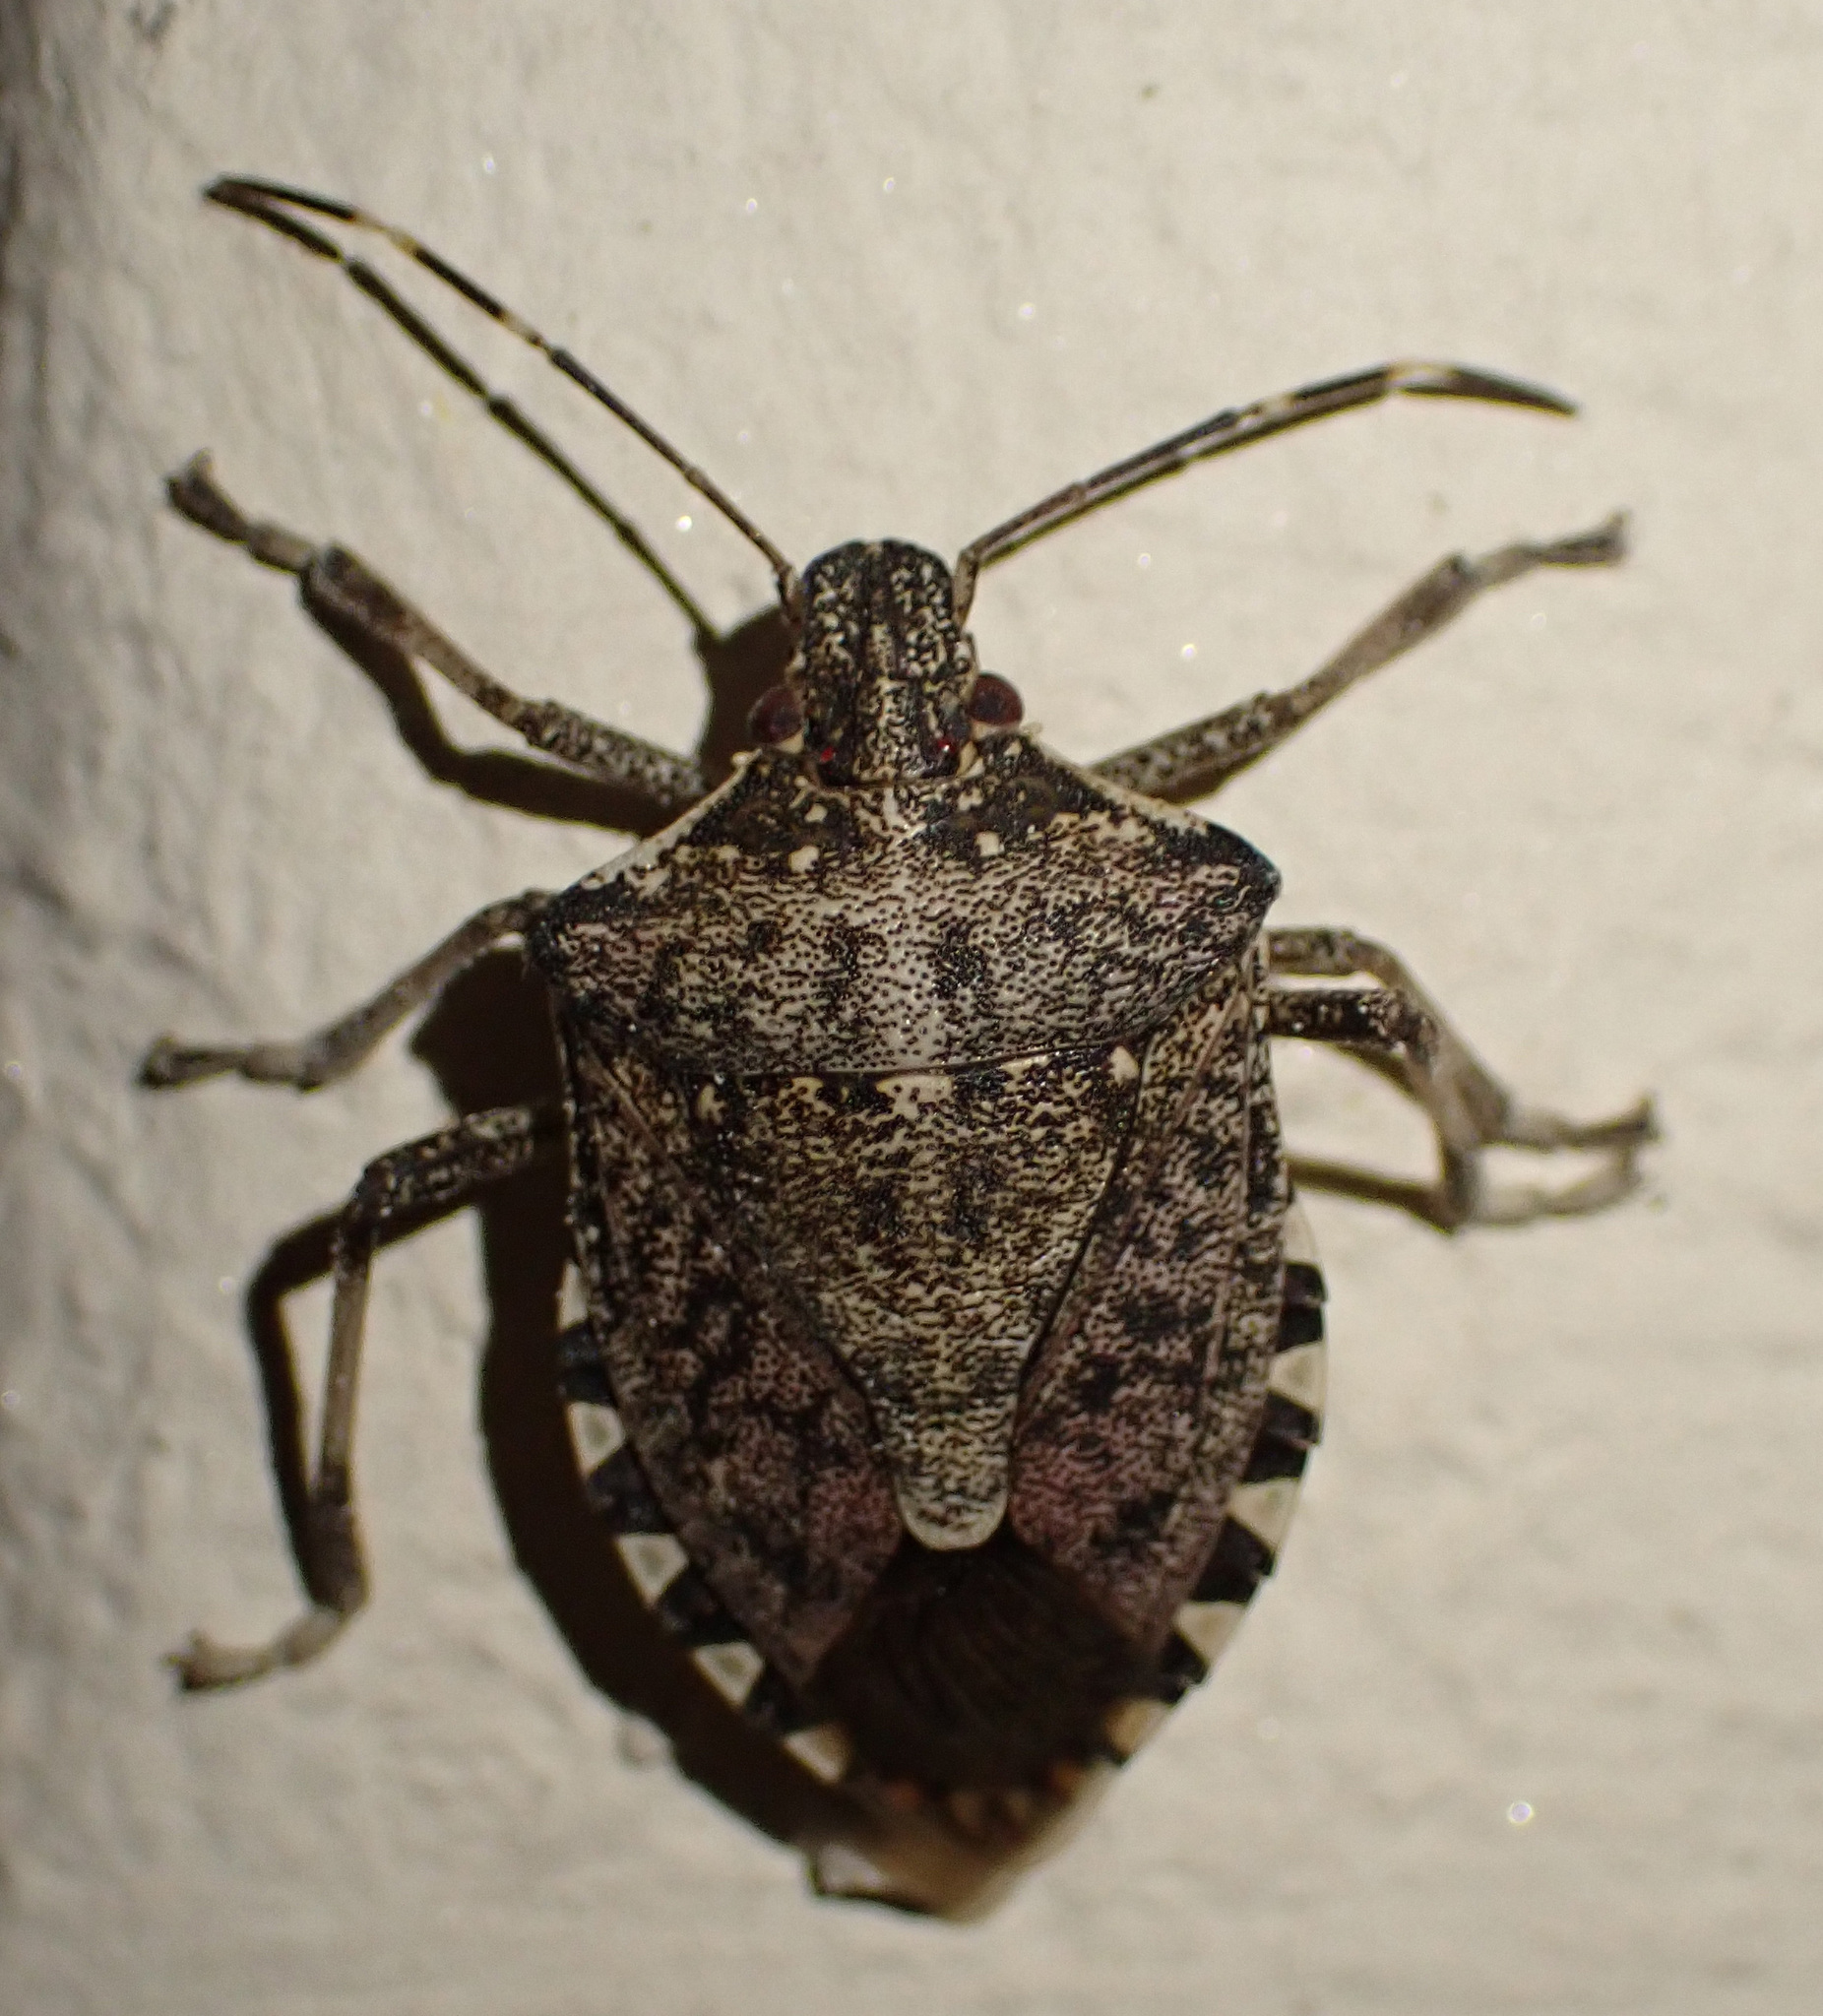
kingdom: Animalia
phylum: Arthropoda
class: Insecta
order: Hemiptera
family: Pentatomidae
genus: Halyomorpha
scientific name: Halyomorpha halys
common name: Brown marmorated stink bug
